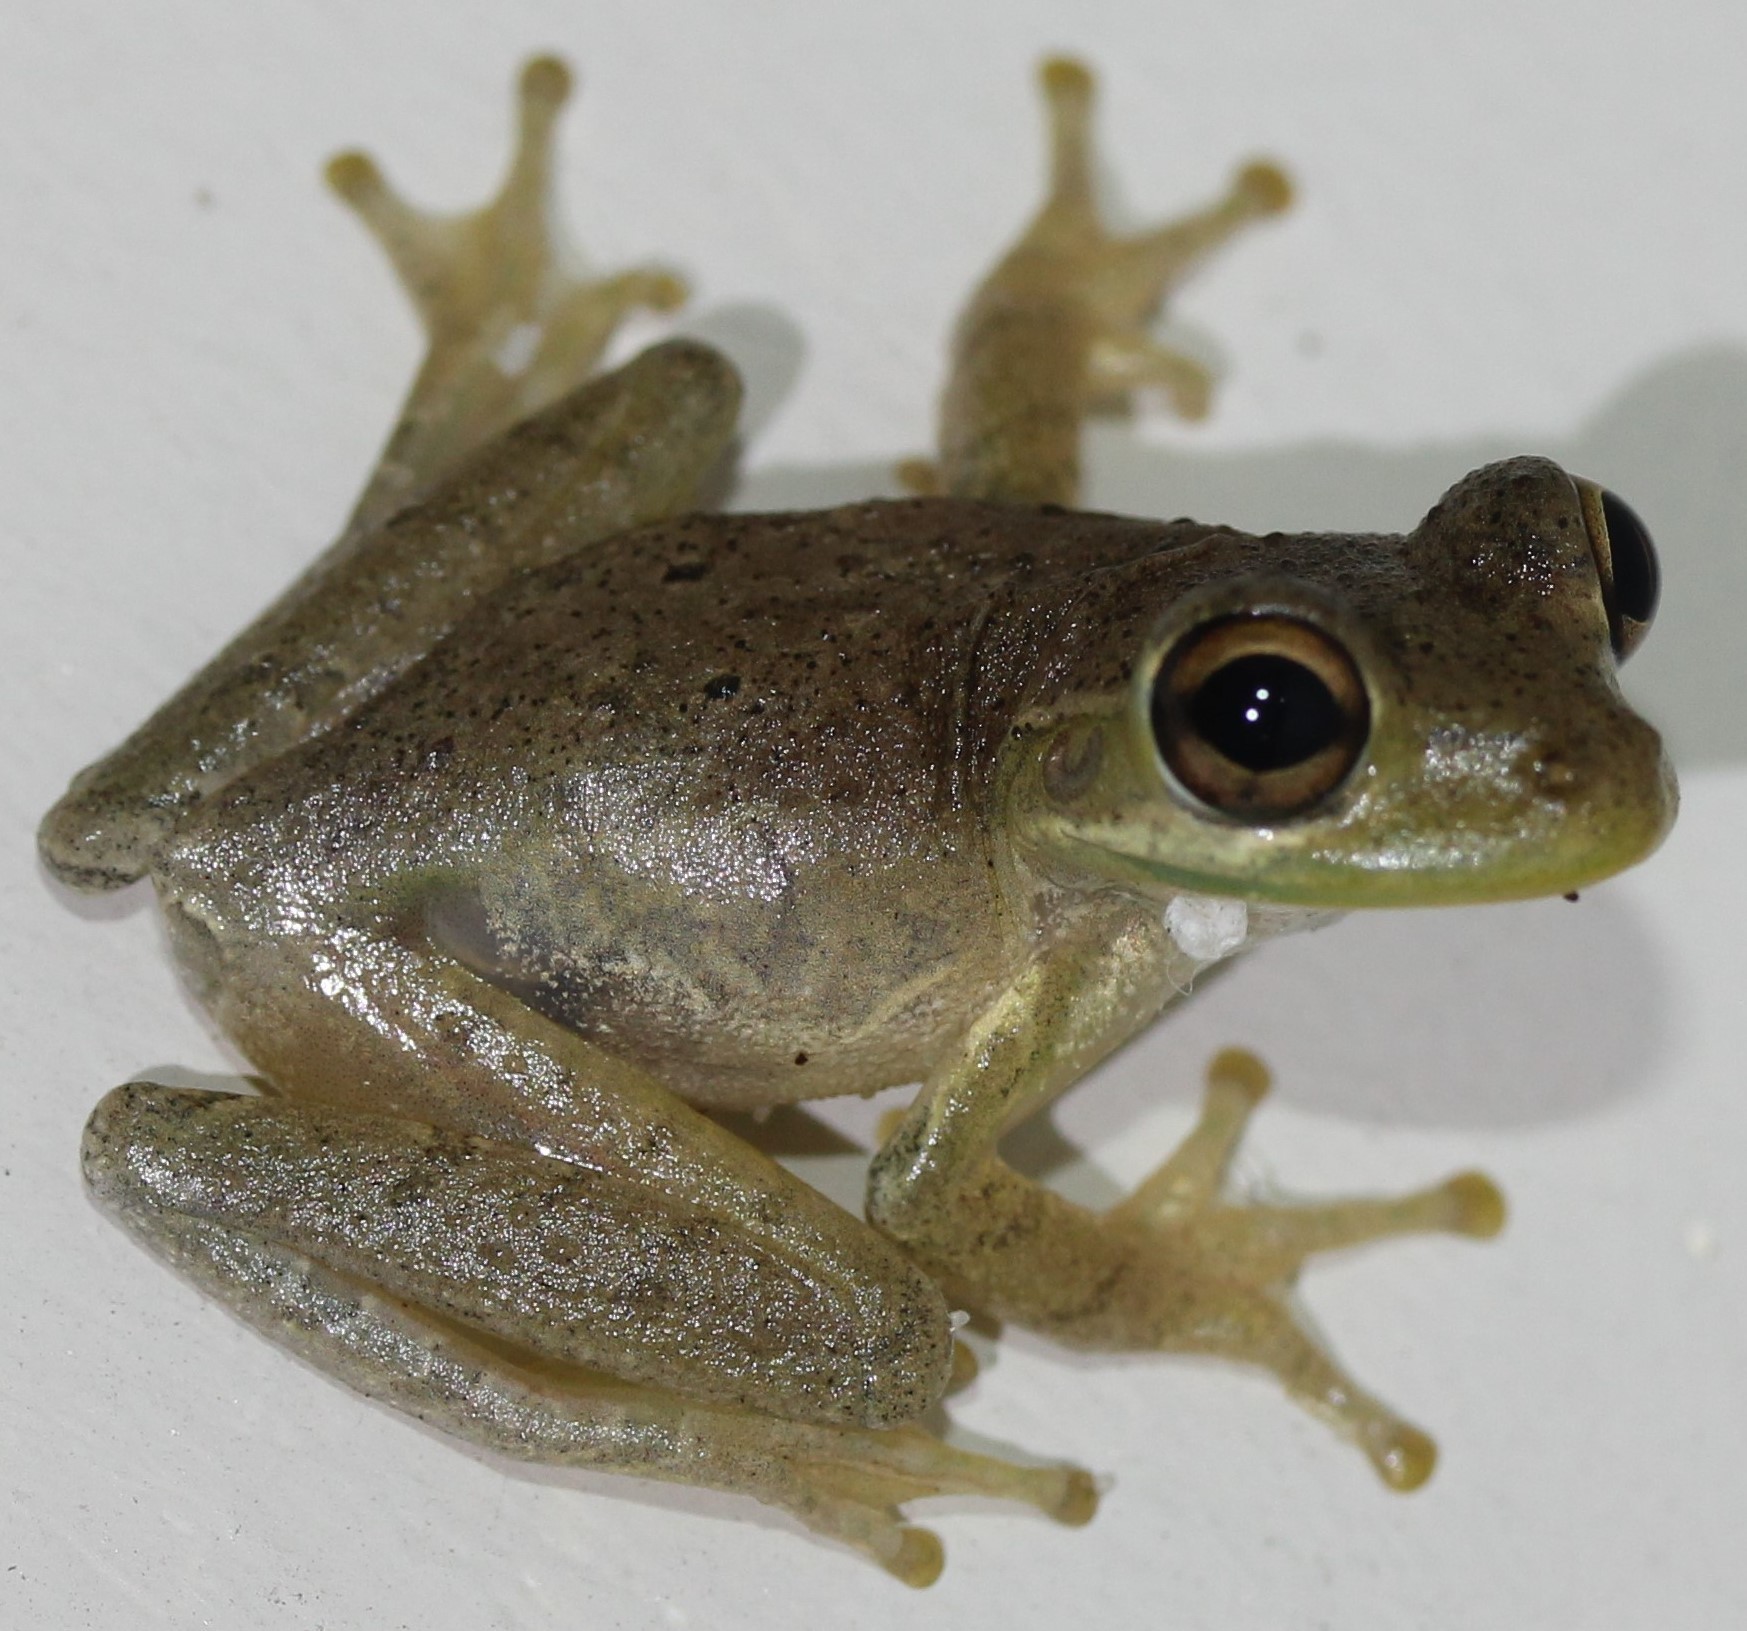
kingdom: Animalia
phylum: Chordata
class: Amphibia
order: Anura
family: Hylidae
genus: Osteopilus
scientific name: Osteopilus septentrionalis
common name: Cuban treefrog
